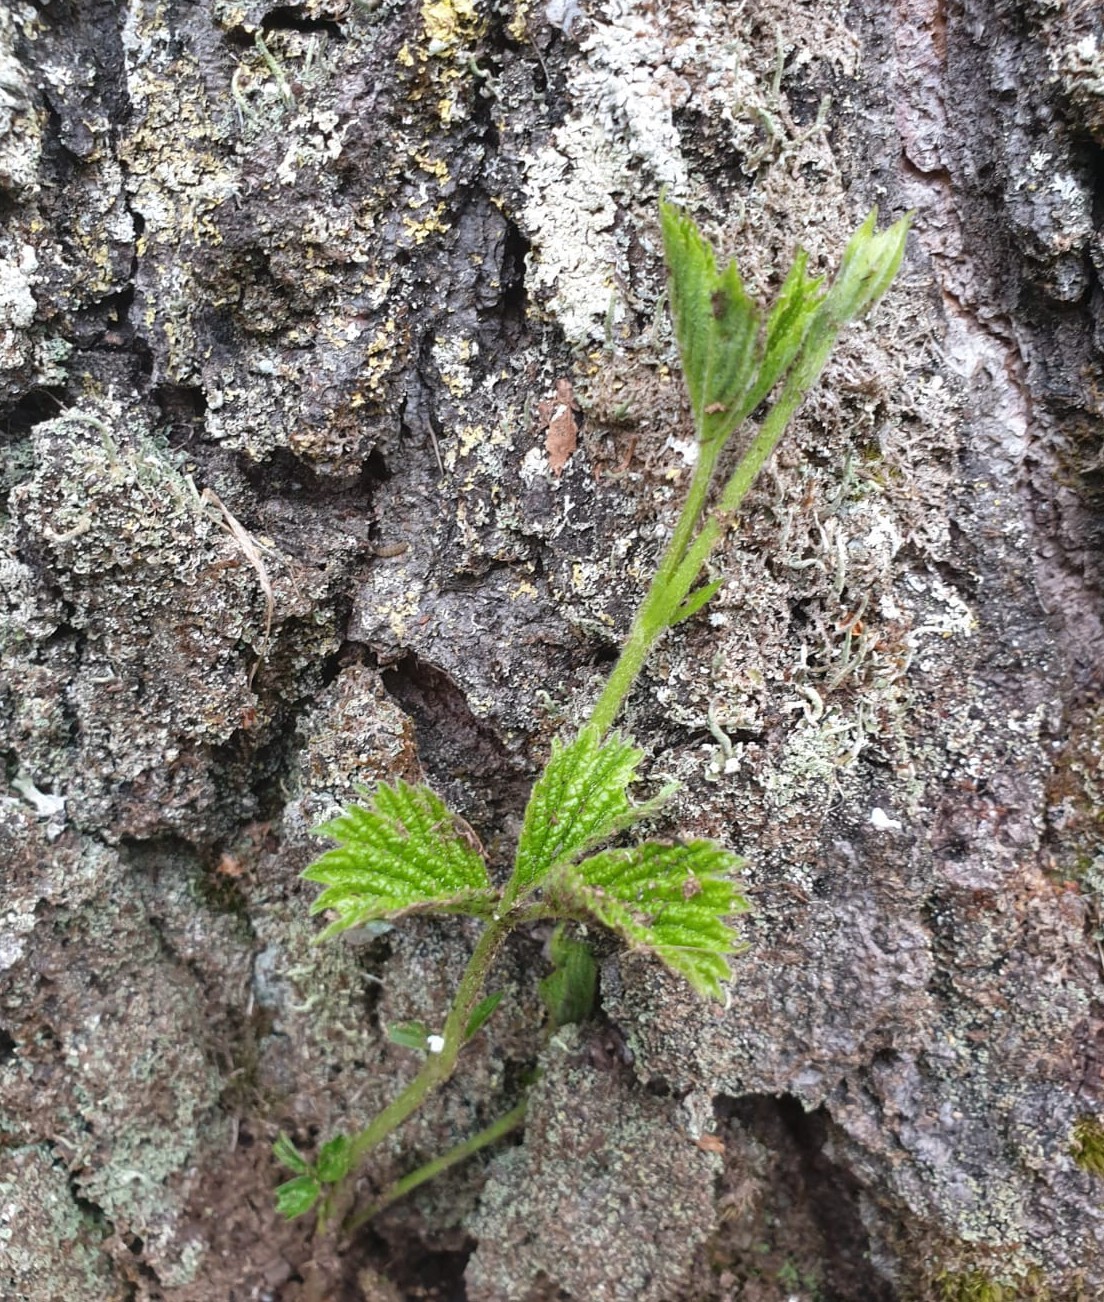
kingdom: Plantae
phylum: Tracheophyta
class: Magnoliopsida
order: Rosales
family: Rosaceae
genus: Rubus
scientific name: Rubus saxatilis
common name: Stone bramble
